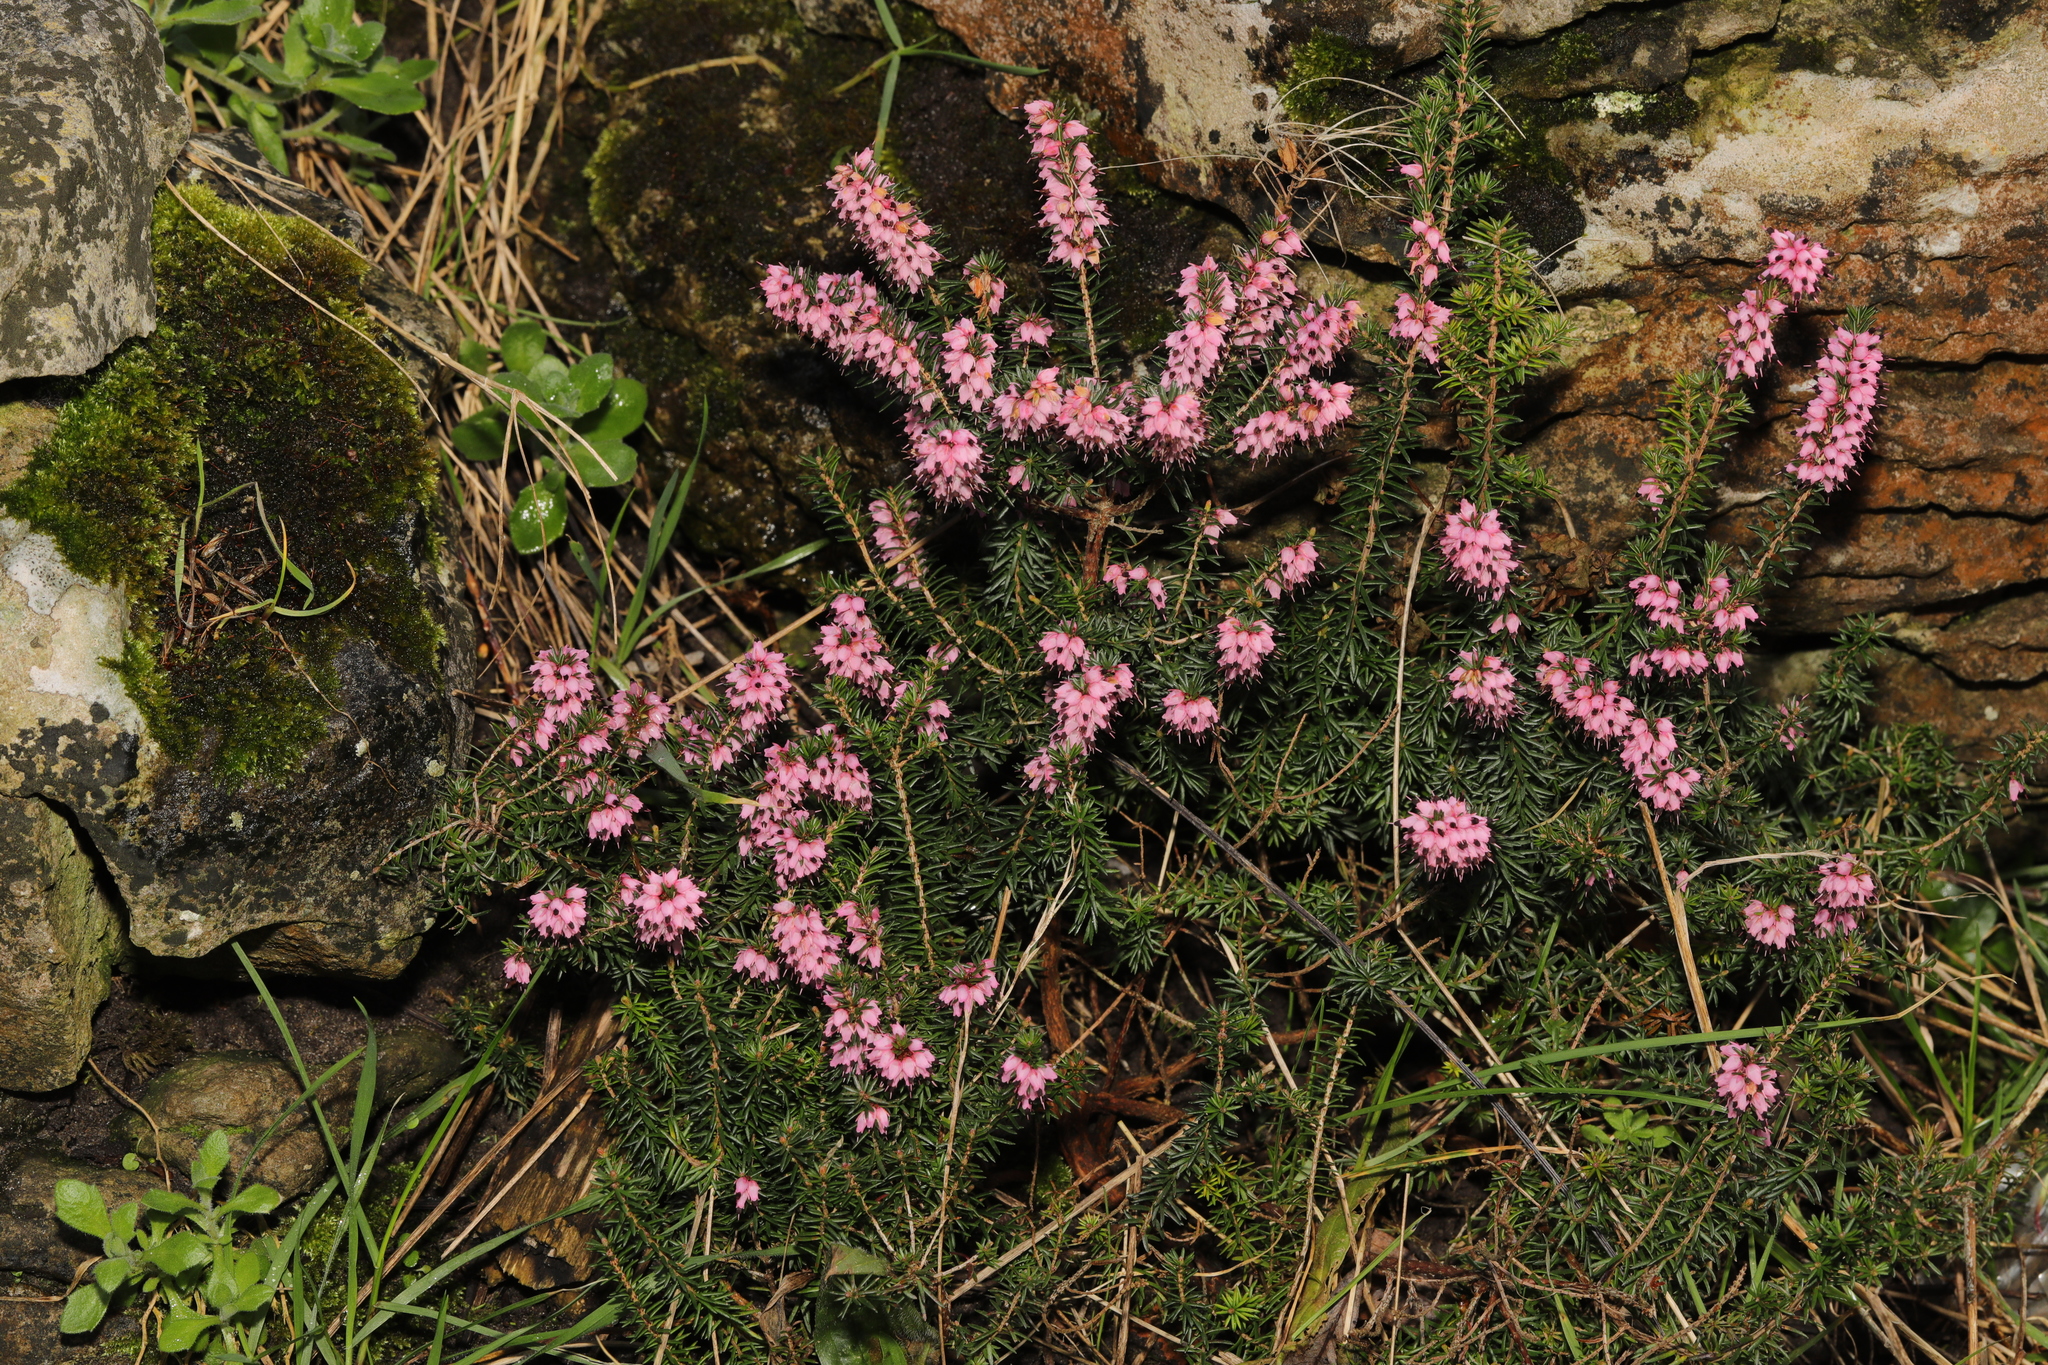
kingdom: Plantae
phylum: Tracheophyta
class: Magnoliopsida
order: Ericales
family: Ericaceae
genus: Erica
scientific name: Erica darleyensis
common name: Darley dale heath
